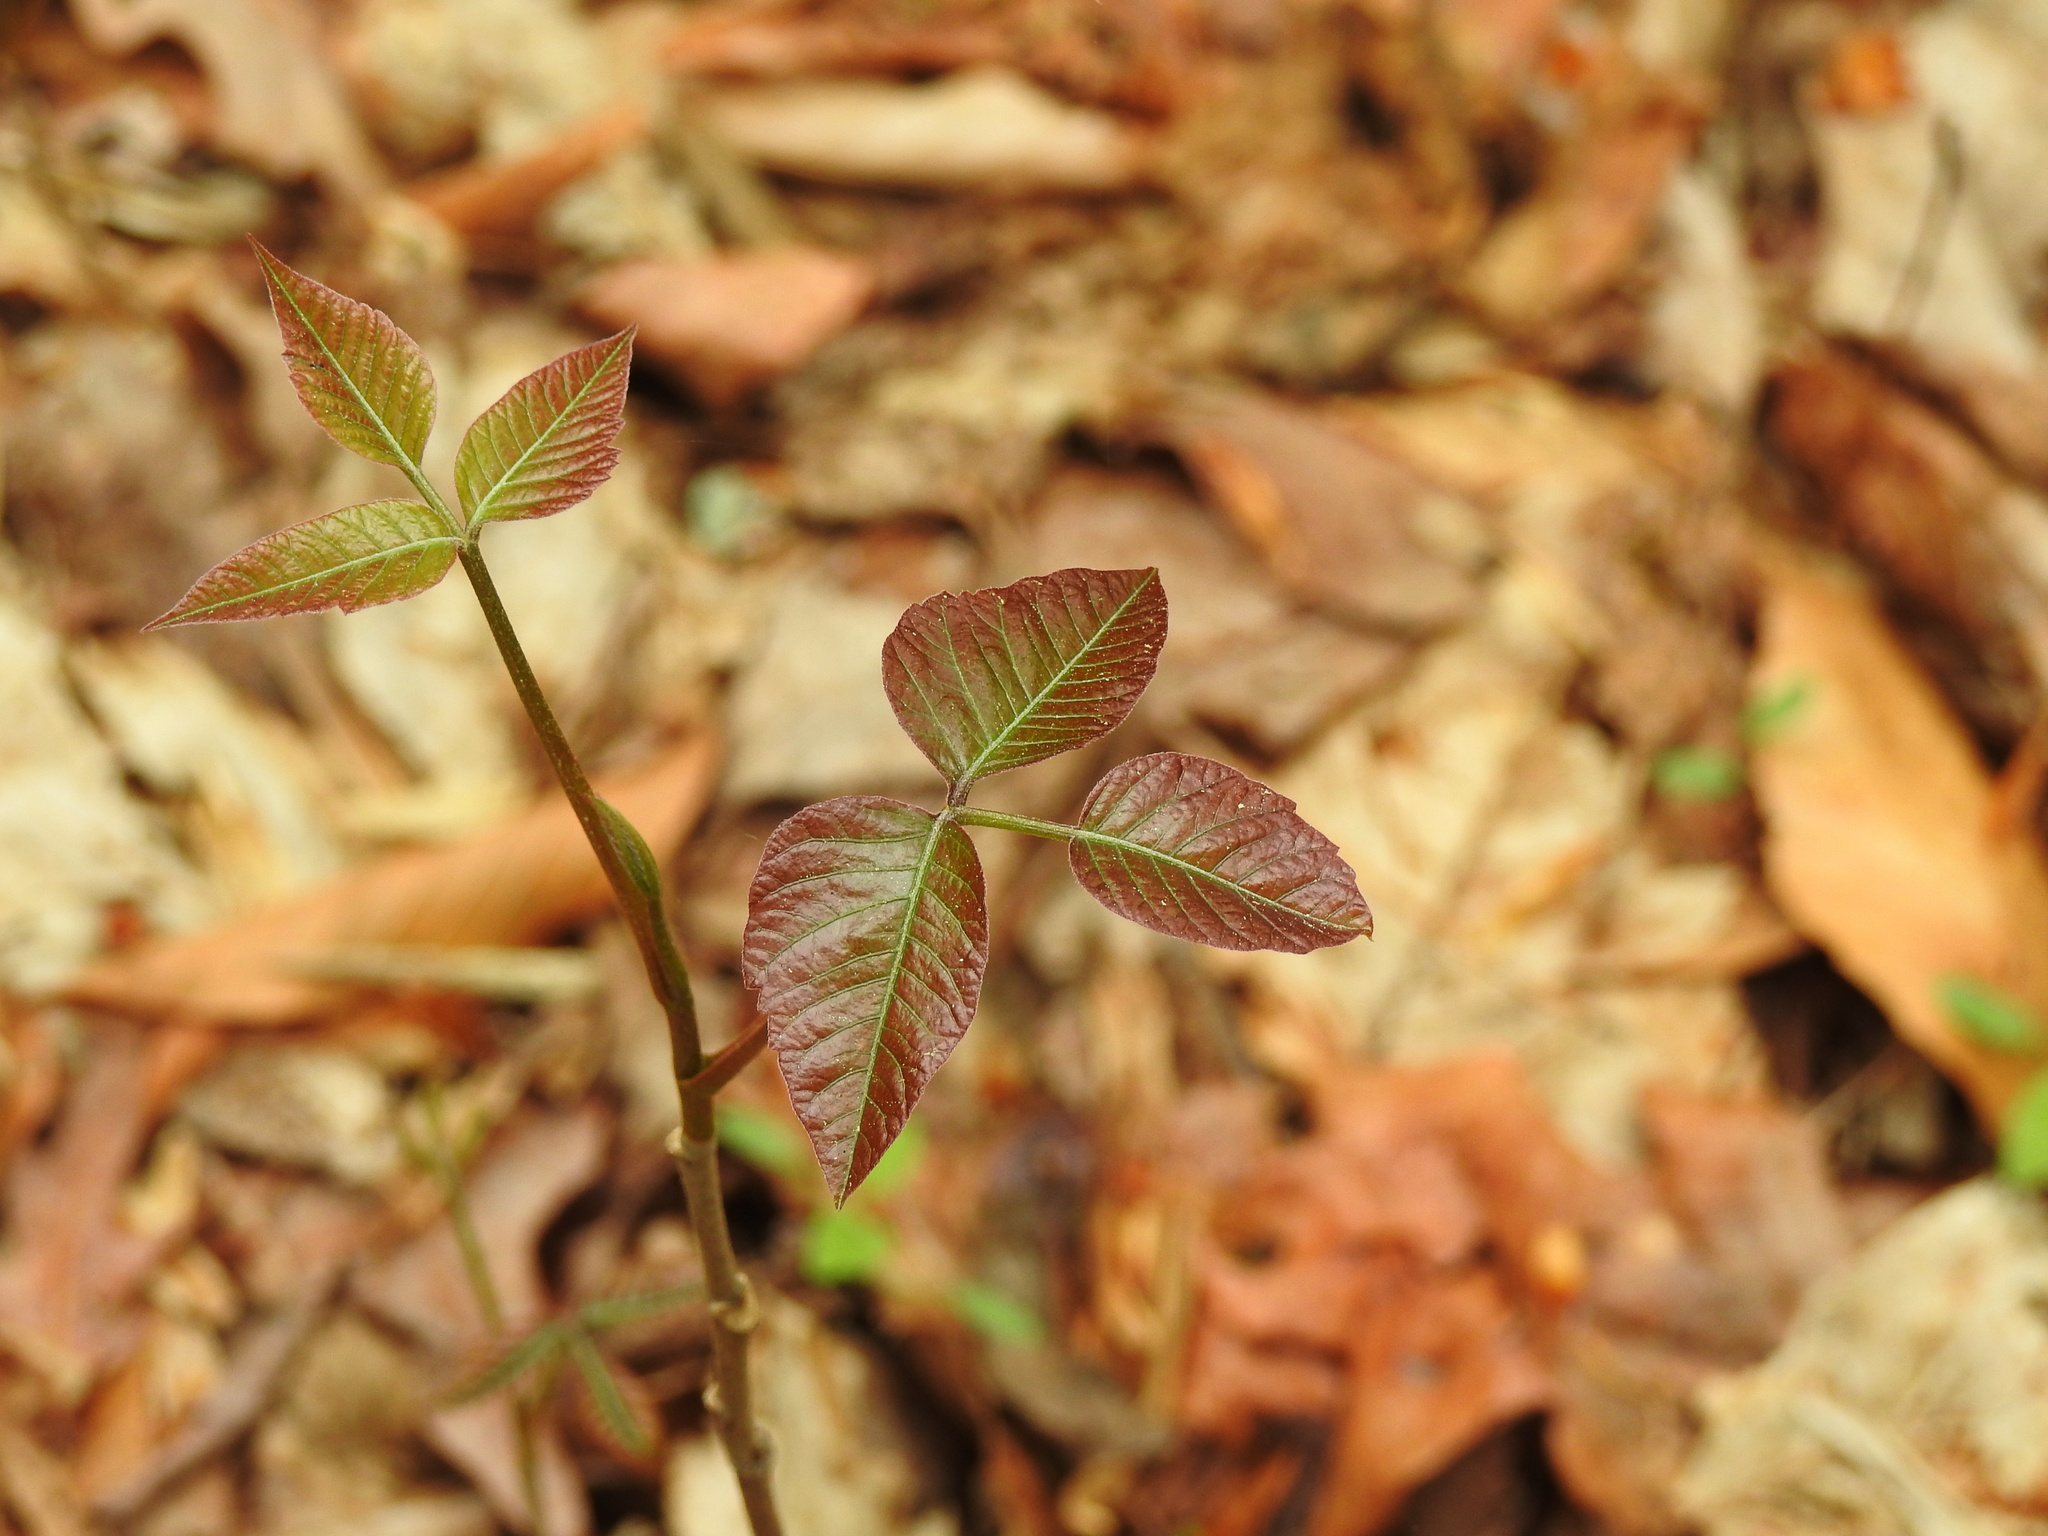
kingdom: Plantae
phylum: Tracheophyta
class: Magnoliopsida
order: Sapindales
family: Anacardiaceae
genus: Toxicodendron
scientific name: Toxicodendron radicans
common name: Poison ivy
